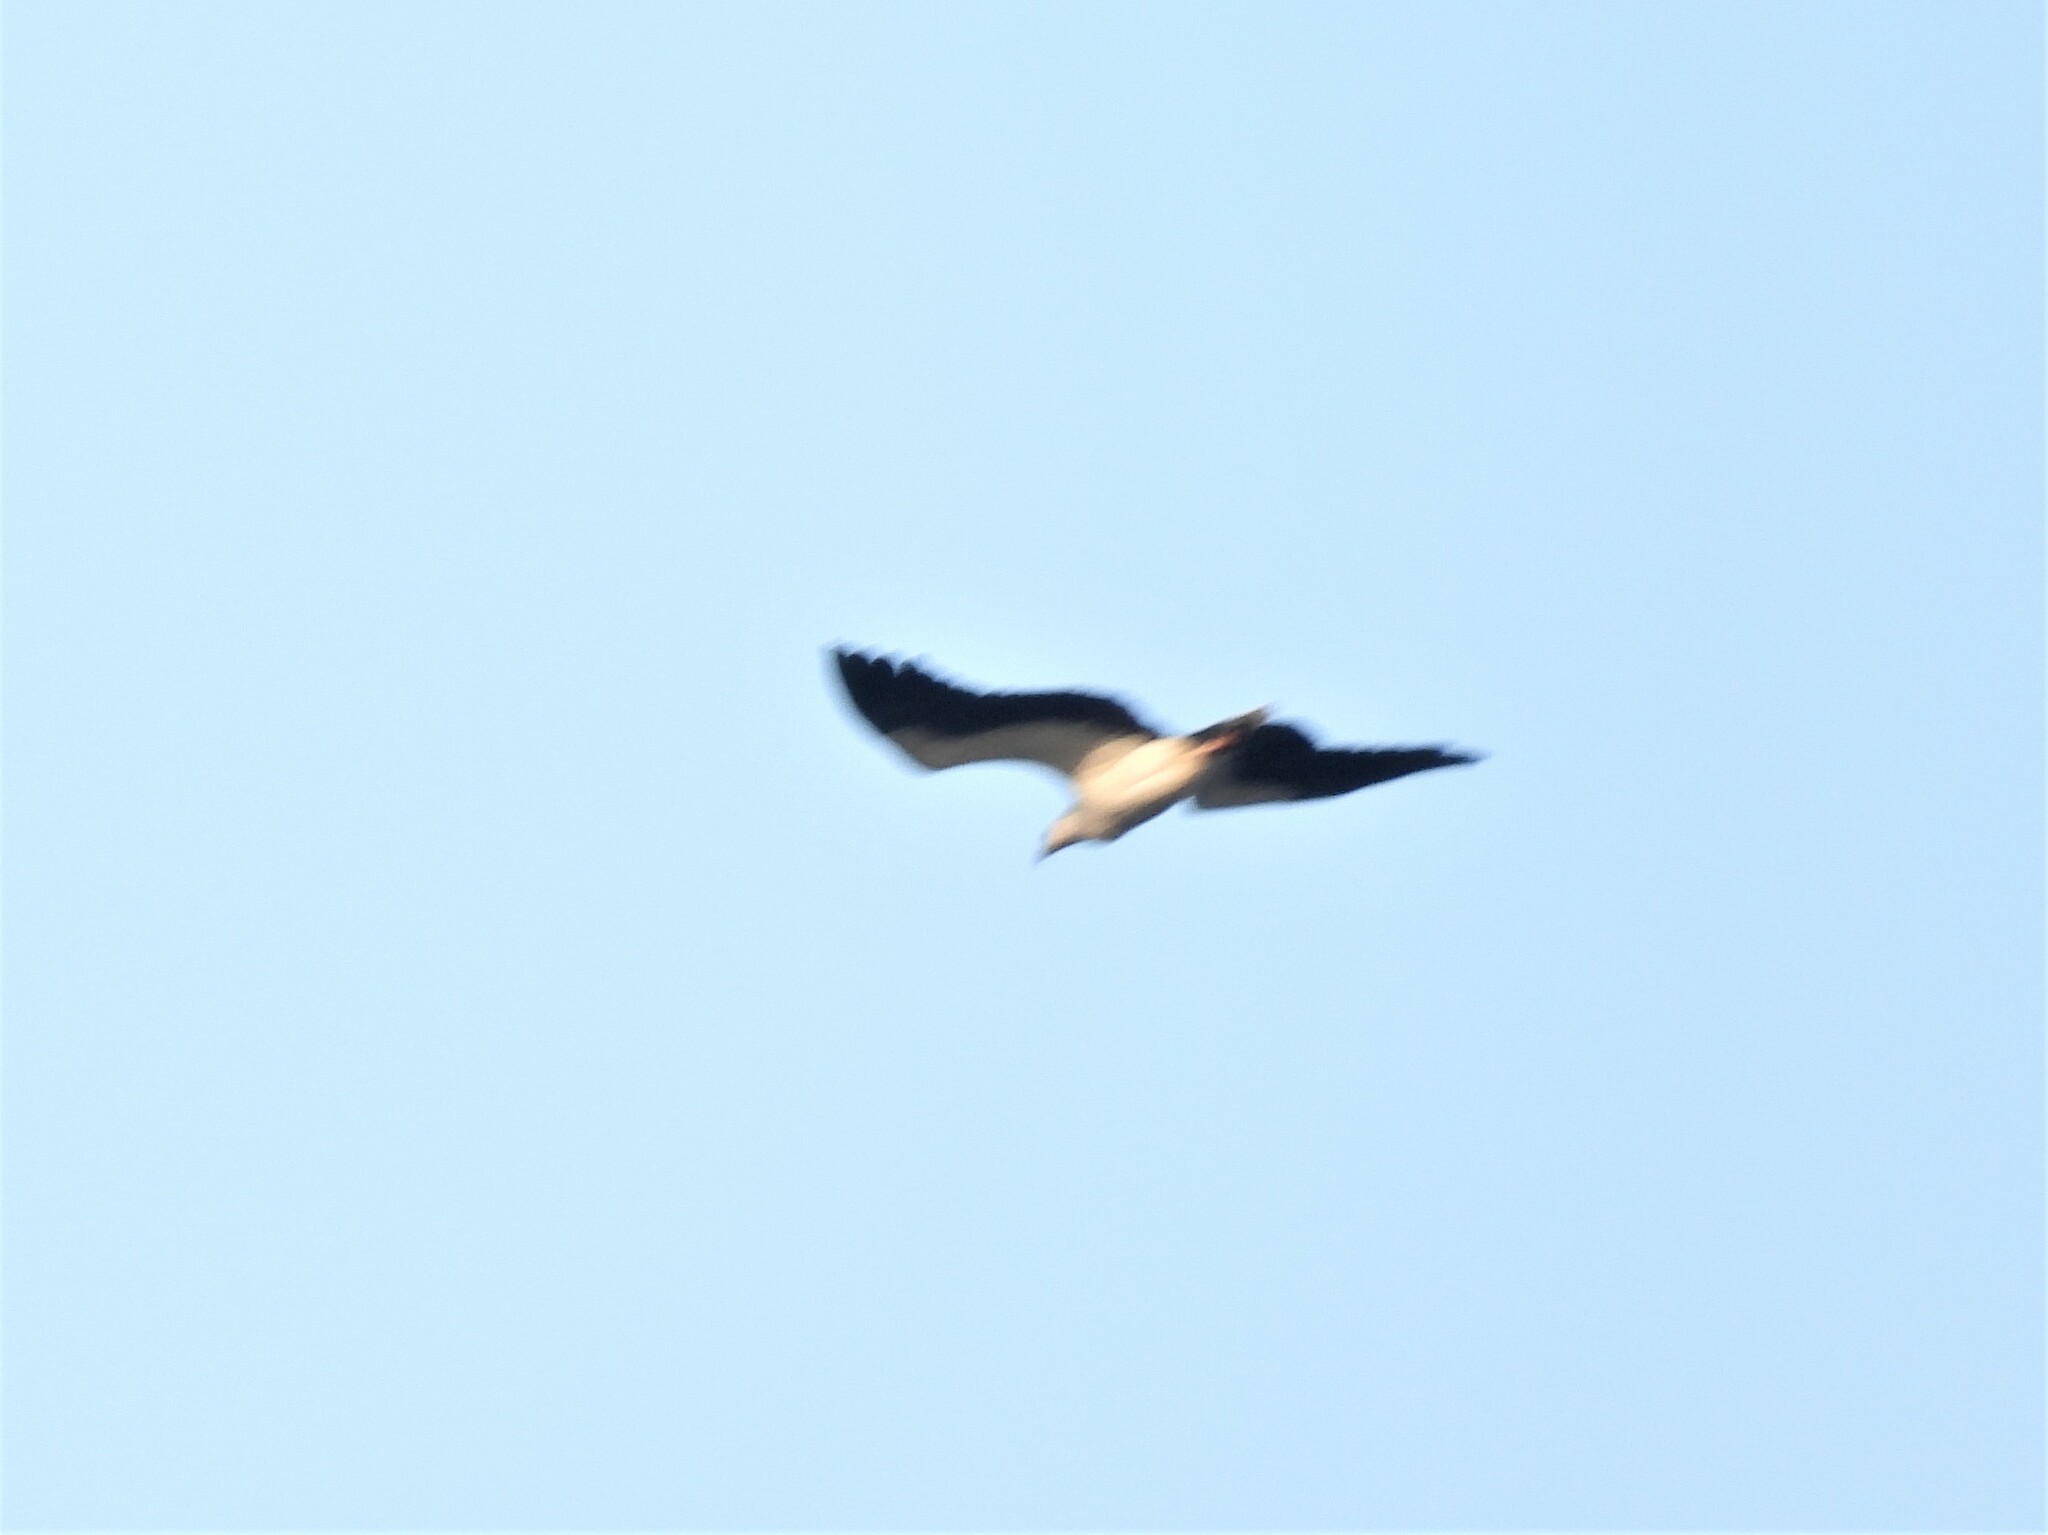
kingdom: Animalia
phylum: Chordata
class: Aves
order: Accipitriformes
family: Accipitridae
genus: Haliaeetus
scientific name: Haliaeetus leucogaster
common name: White-bellied sea eagle
